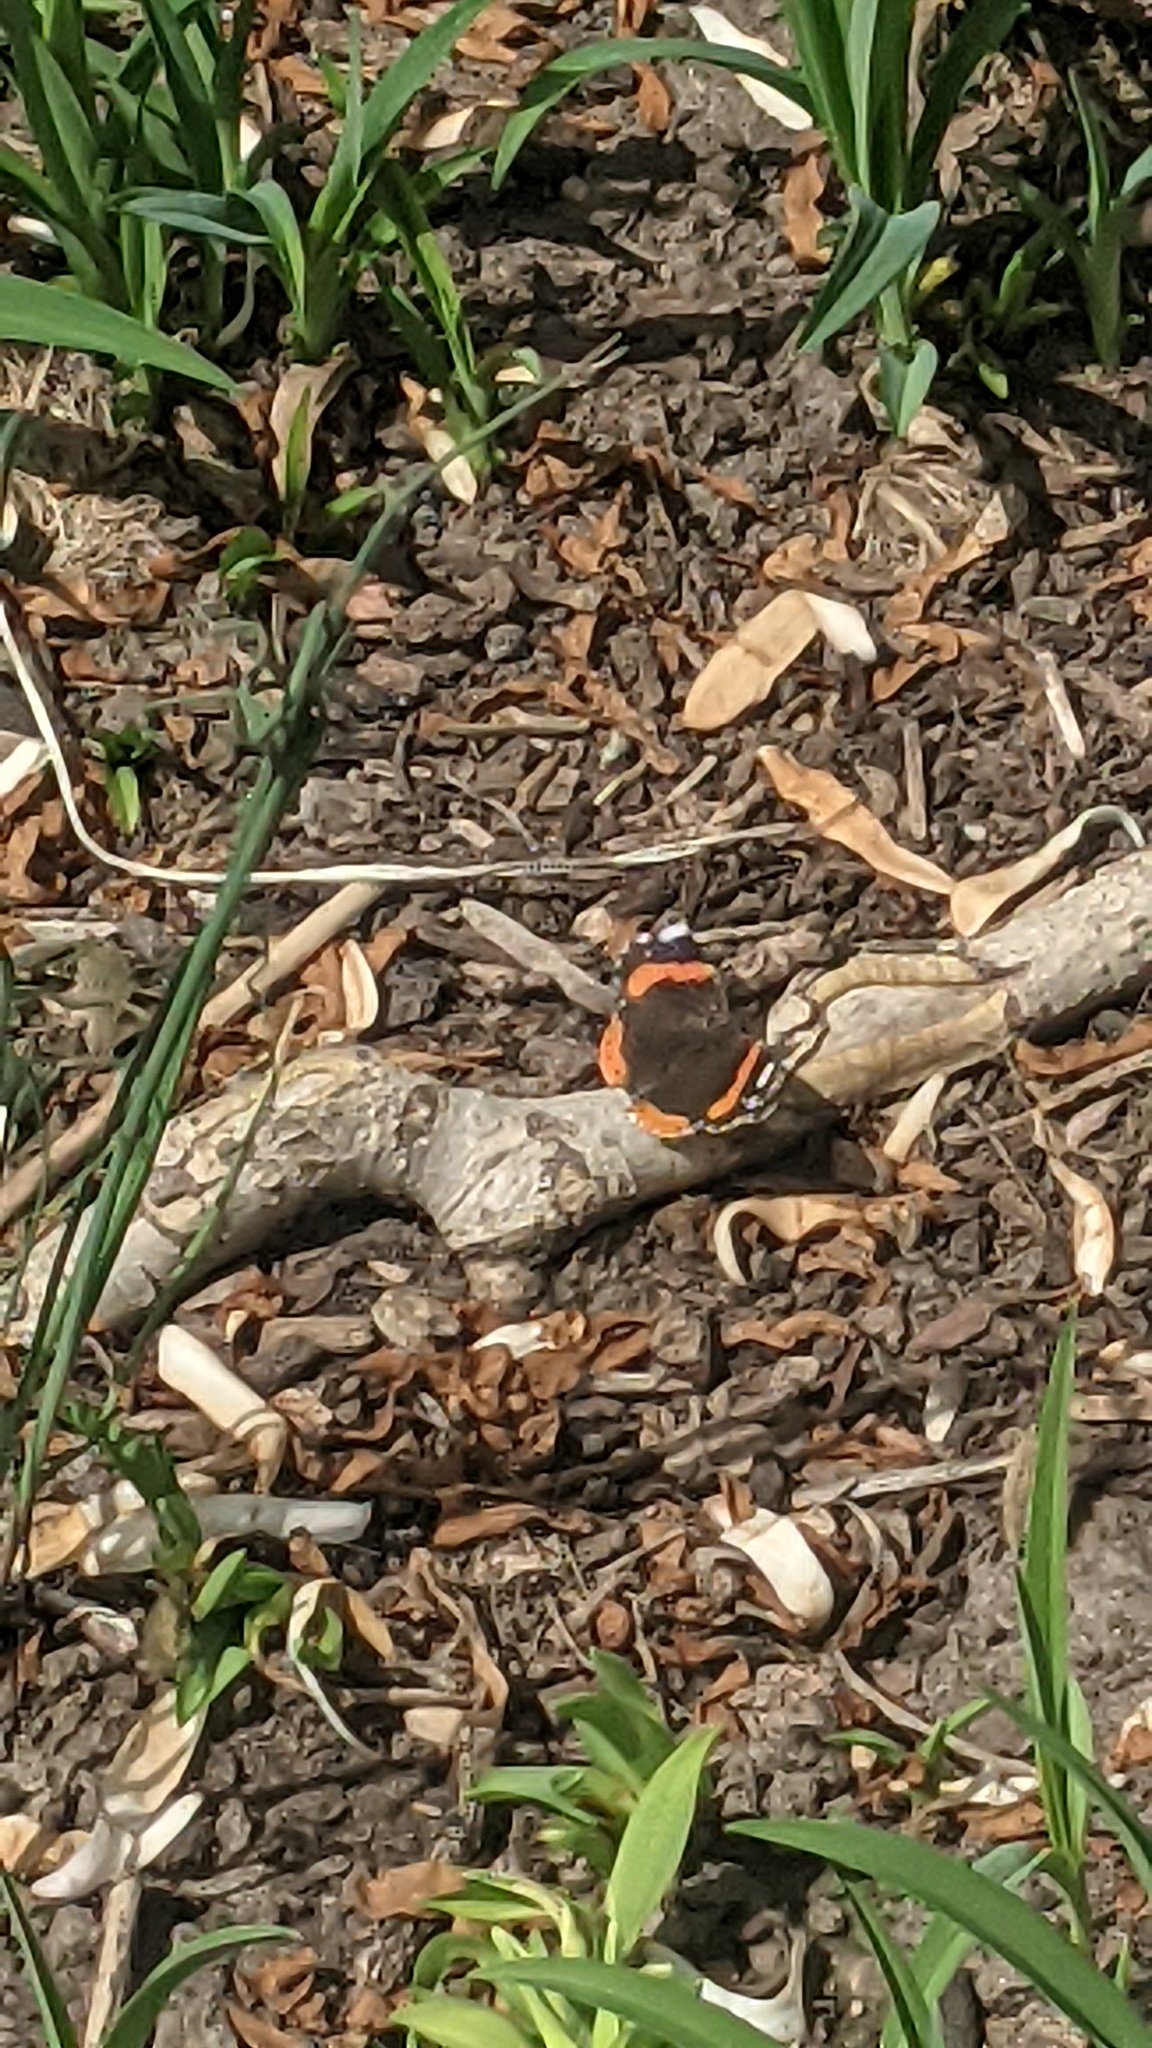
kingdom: Animalia
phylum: Arthropoda
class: Insecta
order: Lepidoptera
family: Nymphalidae
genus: Vanessa
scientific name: Vanessa atalanta
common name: Red admiral
